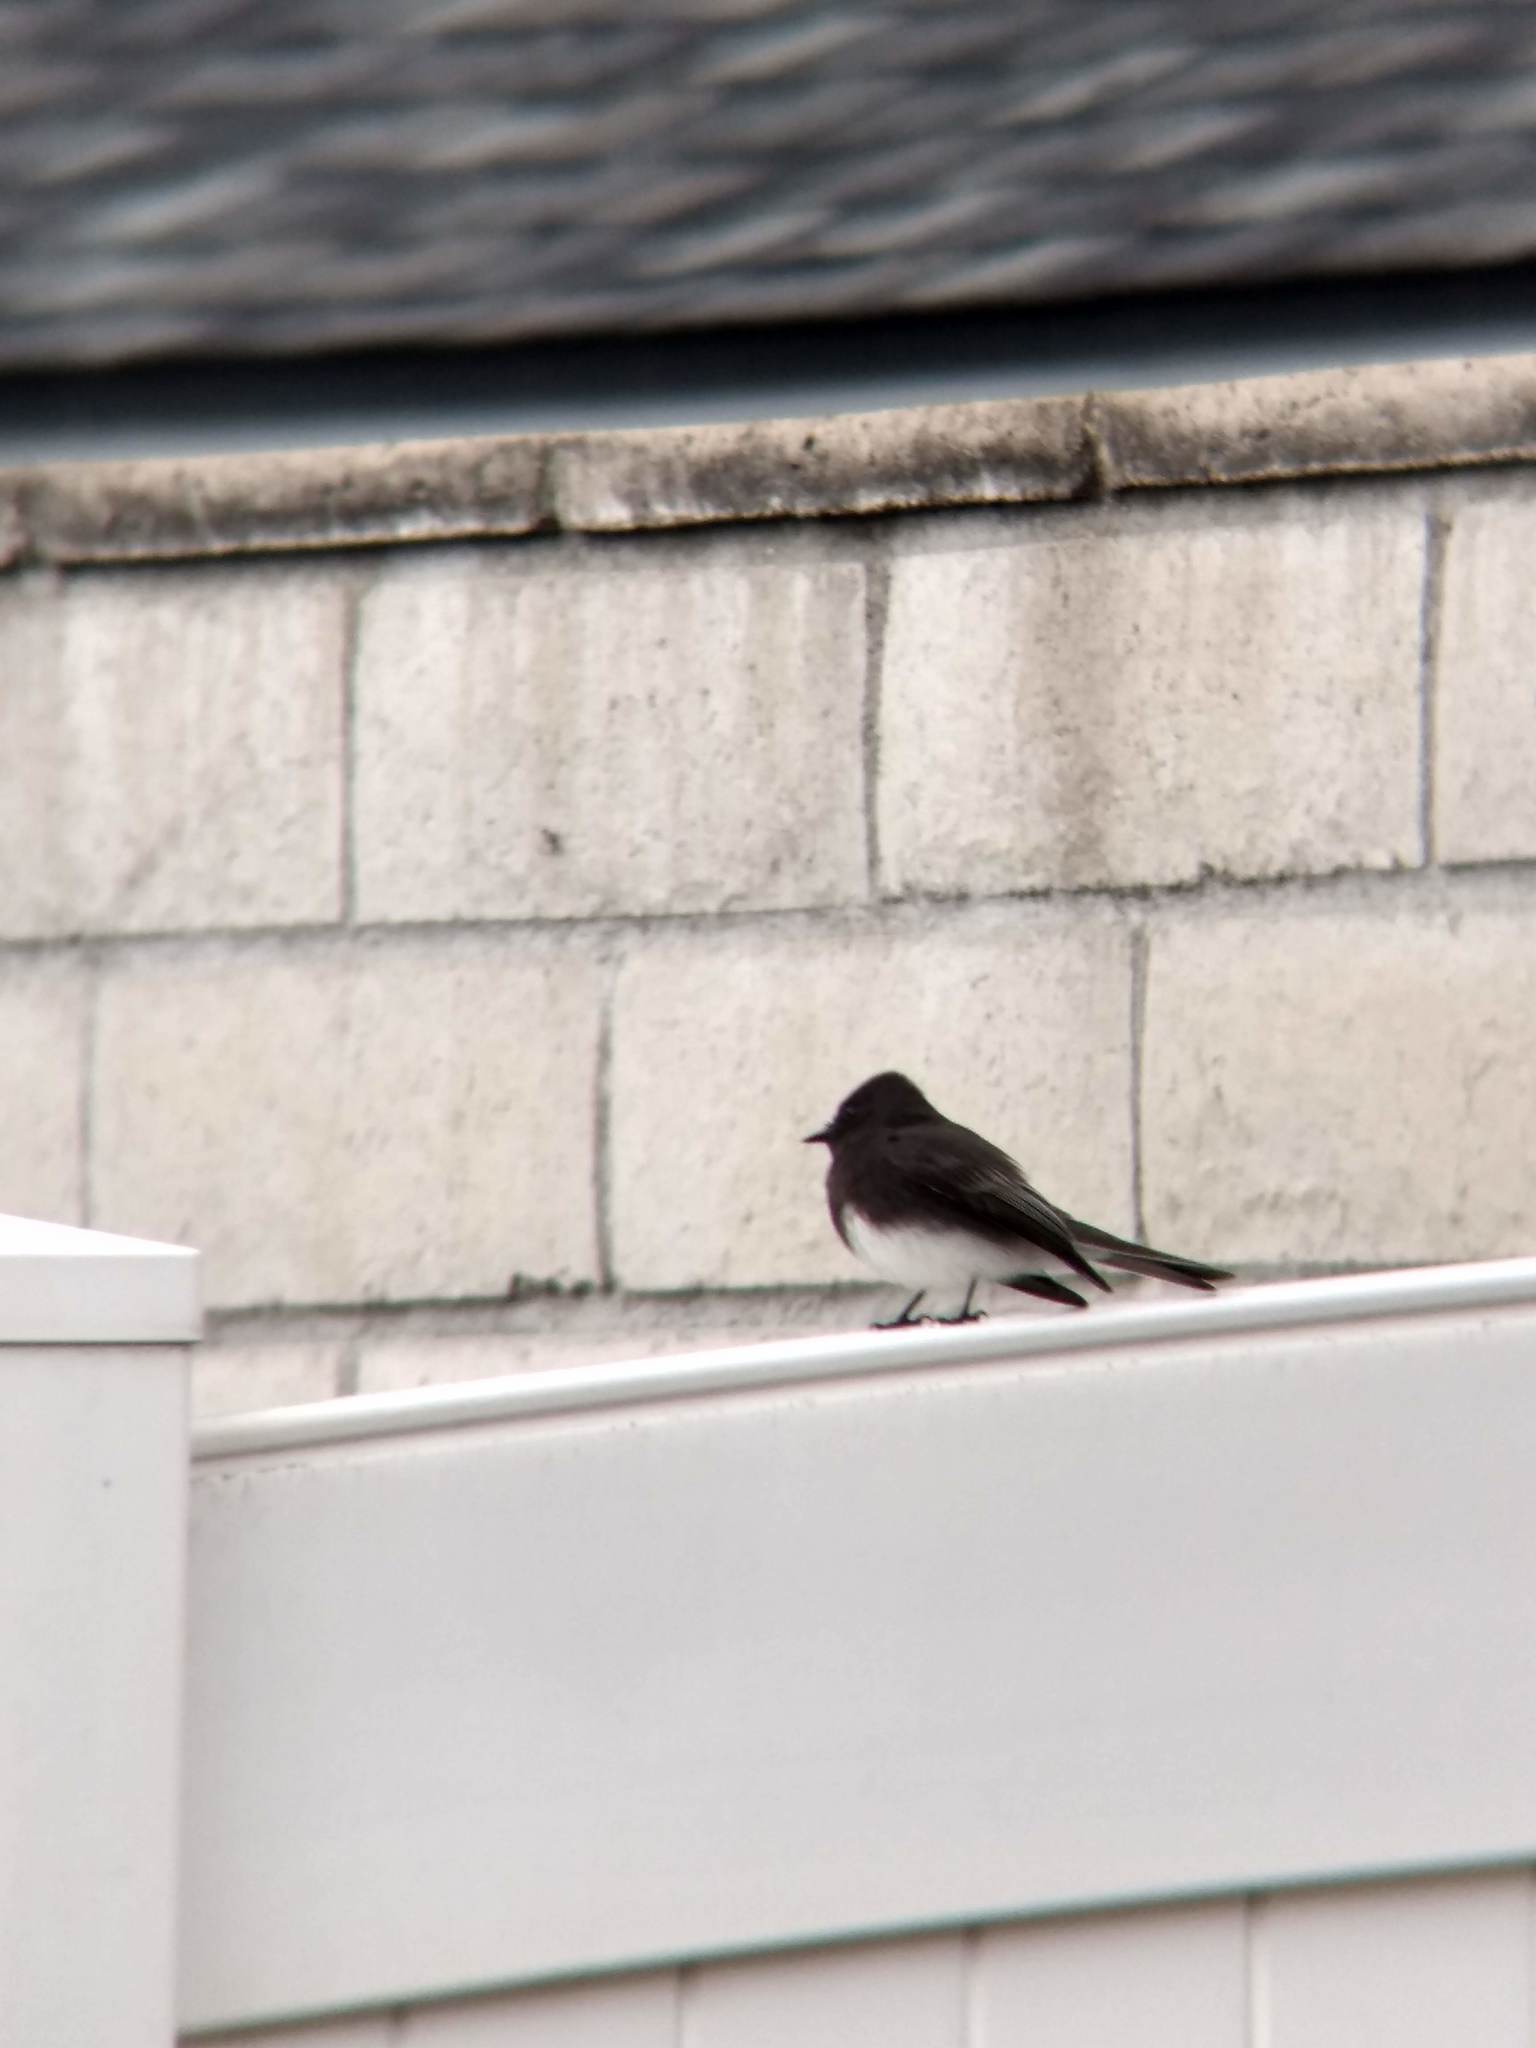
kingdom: Animalia
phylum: Chordata
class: Aves
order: Passeriformes
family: Tyrannidae
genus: Sayornis
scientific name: Sayornis nigricans
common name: Black phoebe
